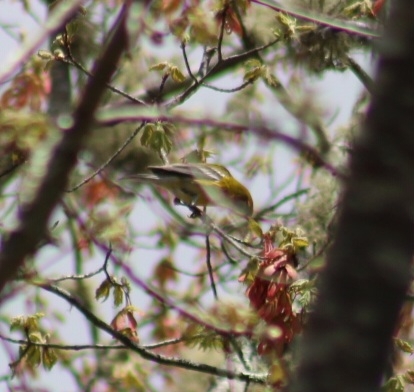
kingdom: Animalia
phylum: Chordata
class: Aves
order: Passeriformes
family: Parulidae
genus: Setophaga
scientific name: Setophaga pinus
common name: Pine warbler
